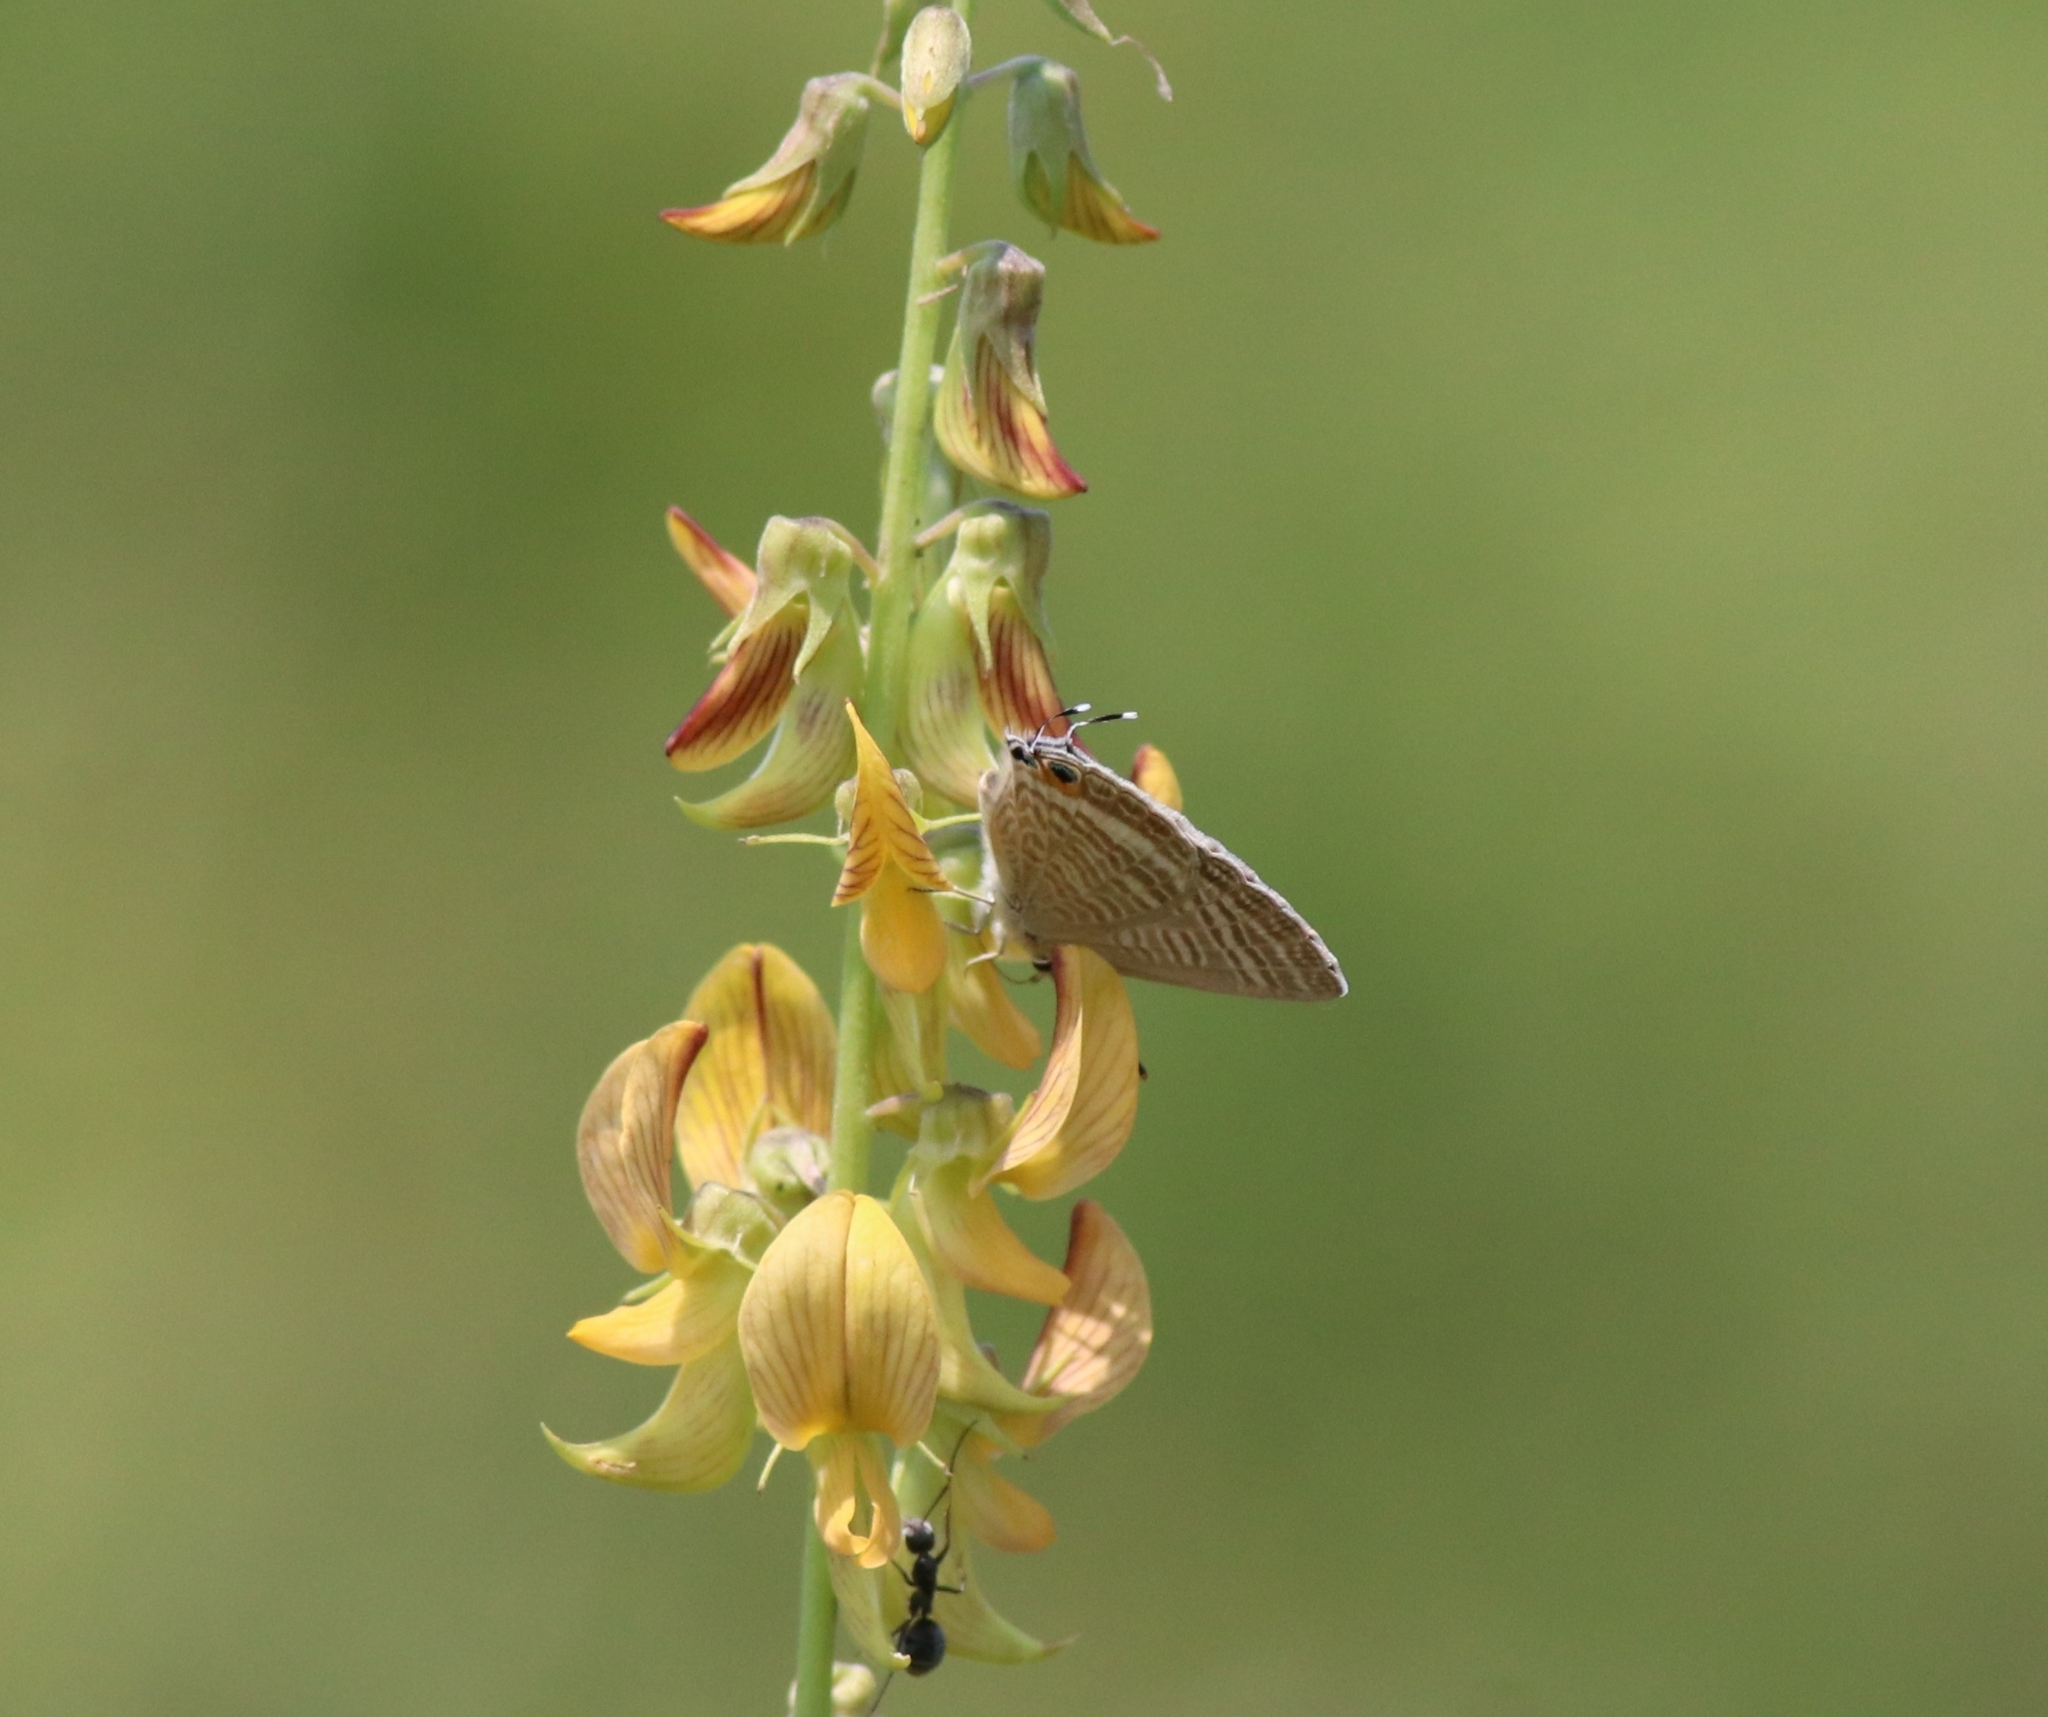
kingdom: Animalia
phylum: Arthropoda
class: Insecta
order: Lepidoptera
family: Lycaenidae
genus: Lampides
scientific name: Lampides boeticus
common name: Long-tailed blue
